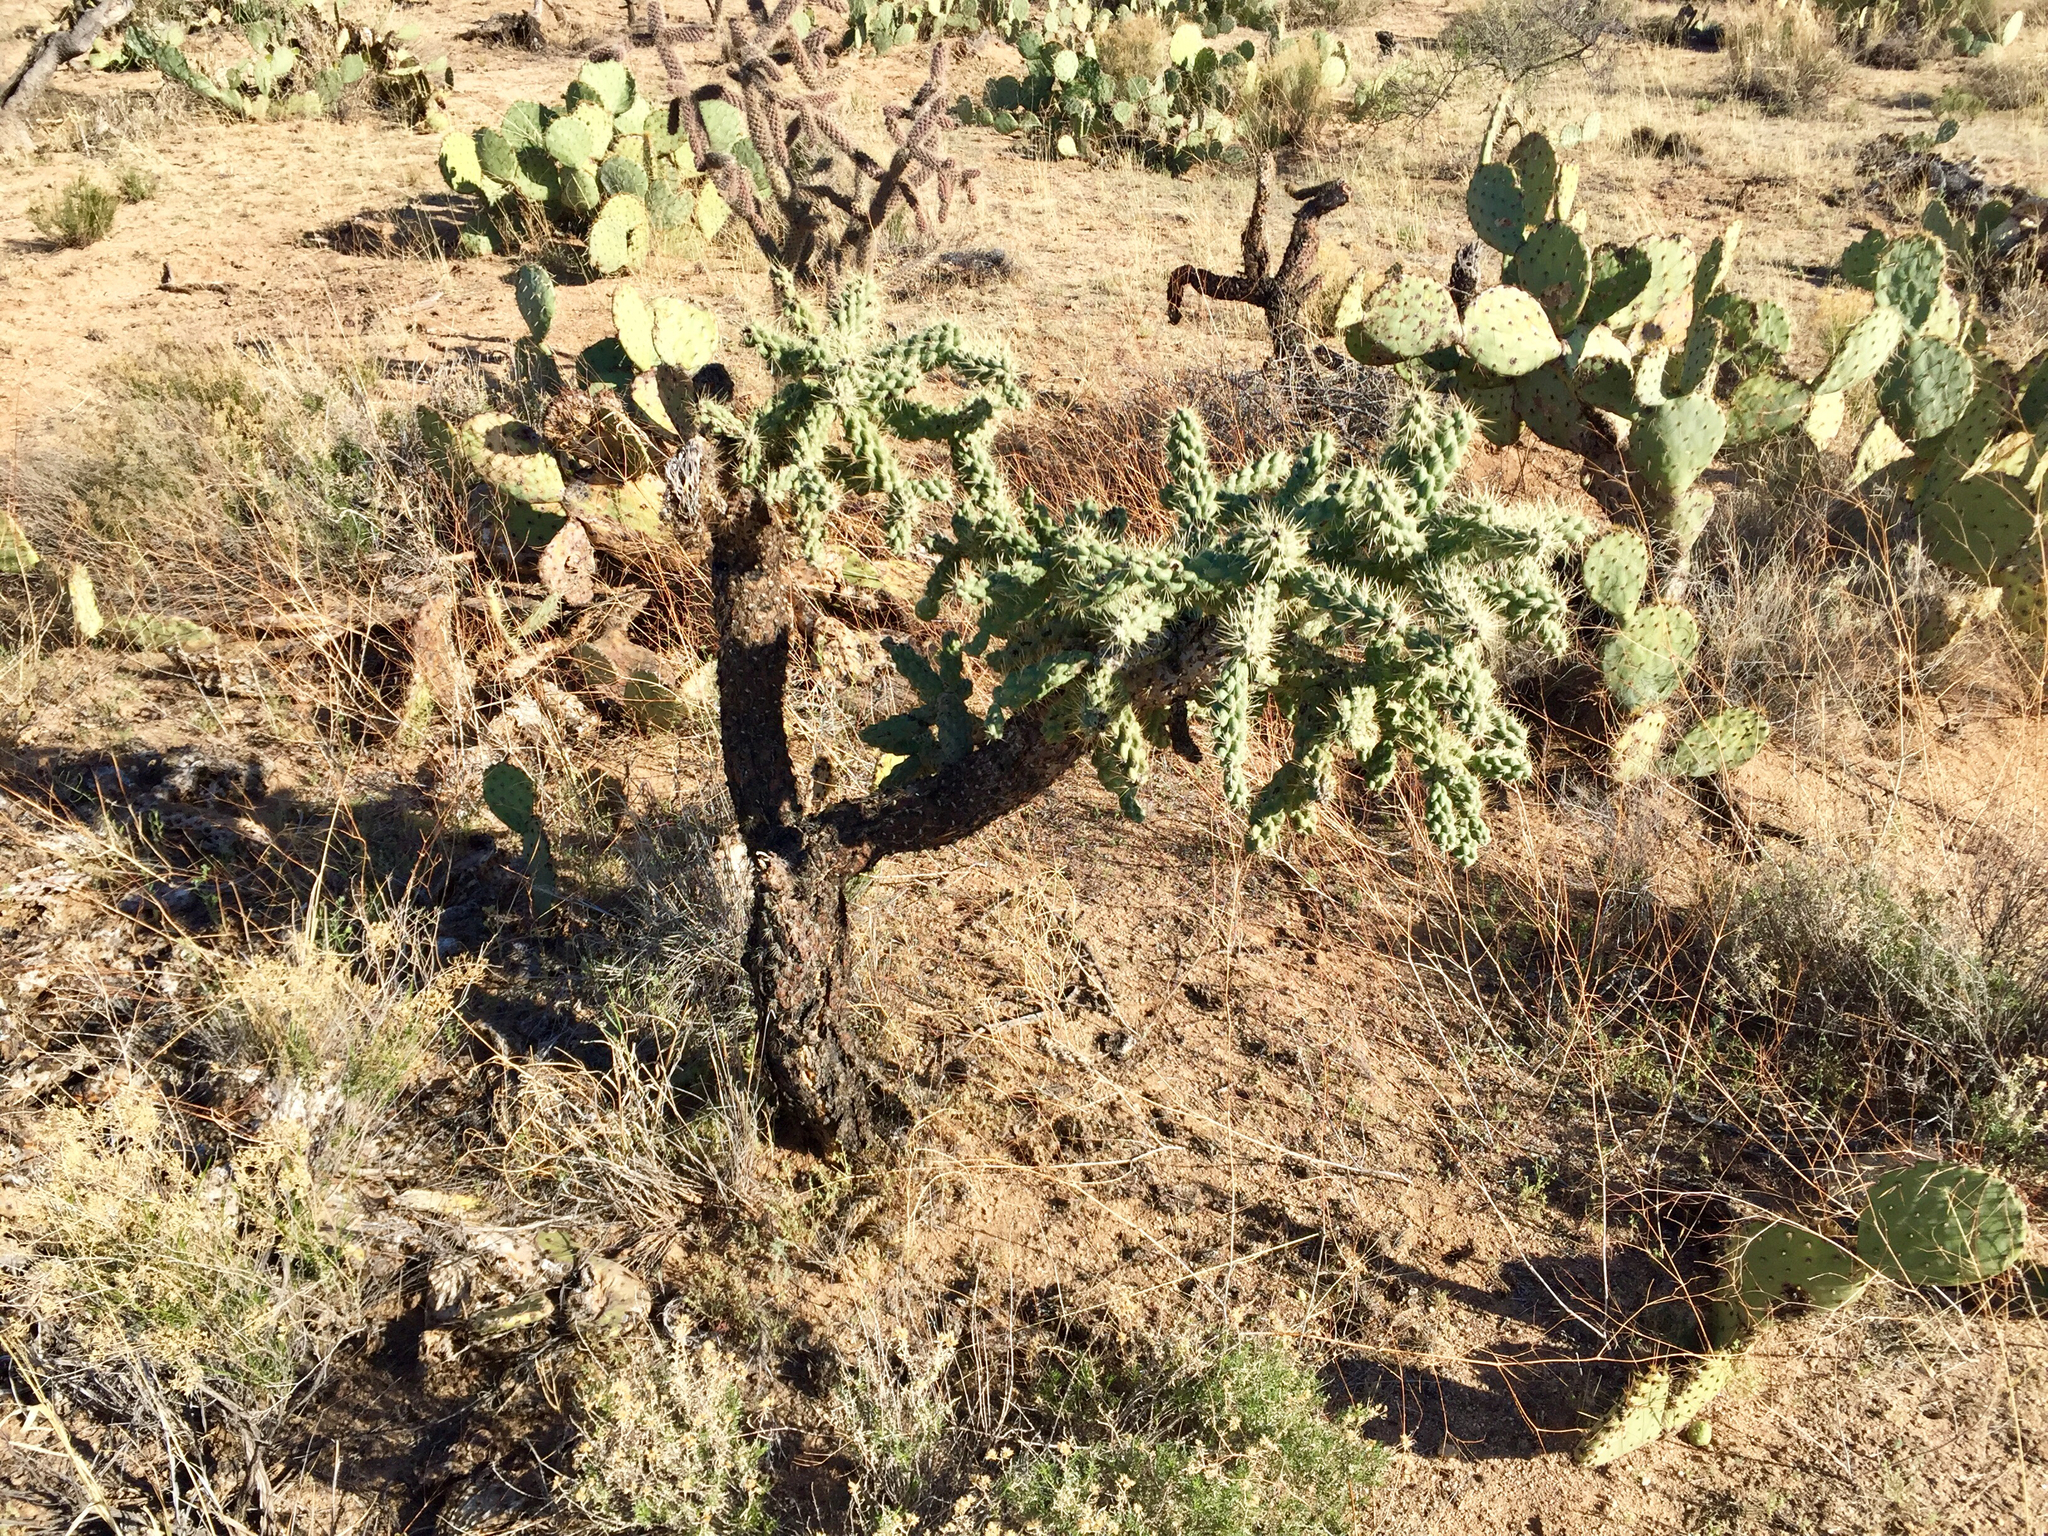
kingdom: Plantae
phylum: Tracheophyta
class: Magnoliopsida
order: Caryophyllales
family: Cactaceae
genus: Cylindropuntia
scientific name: Cylindropuntia fulgida
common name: Jumping cholla
